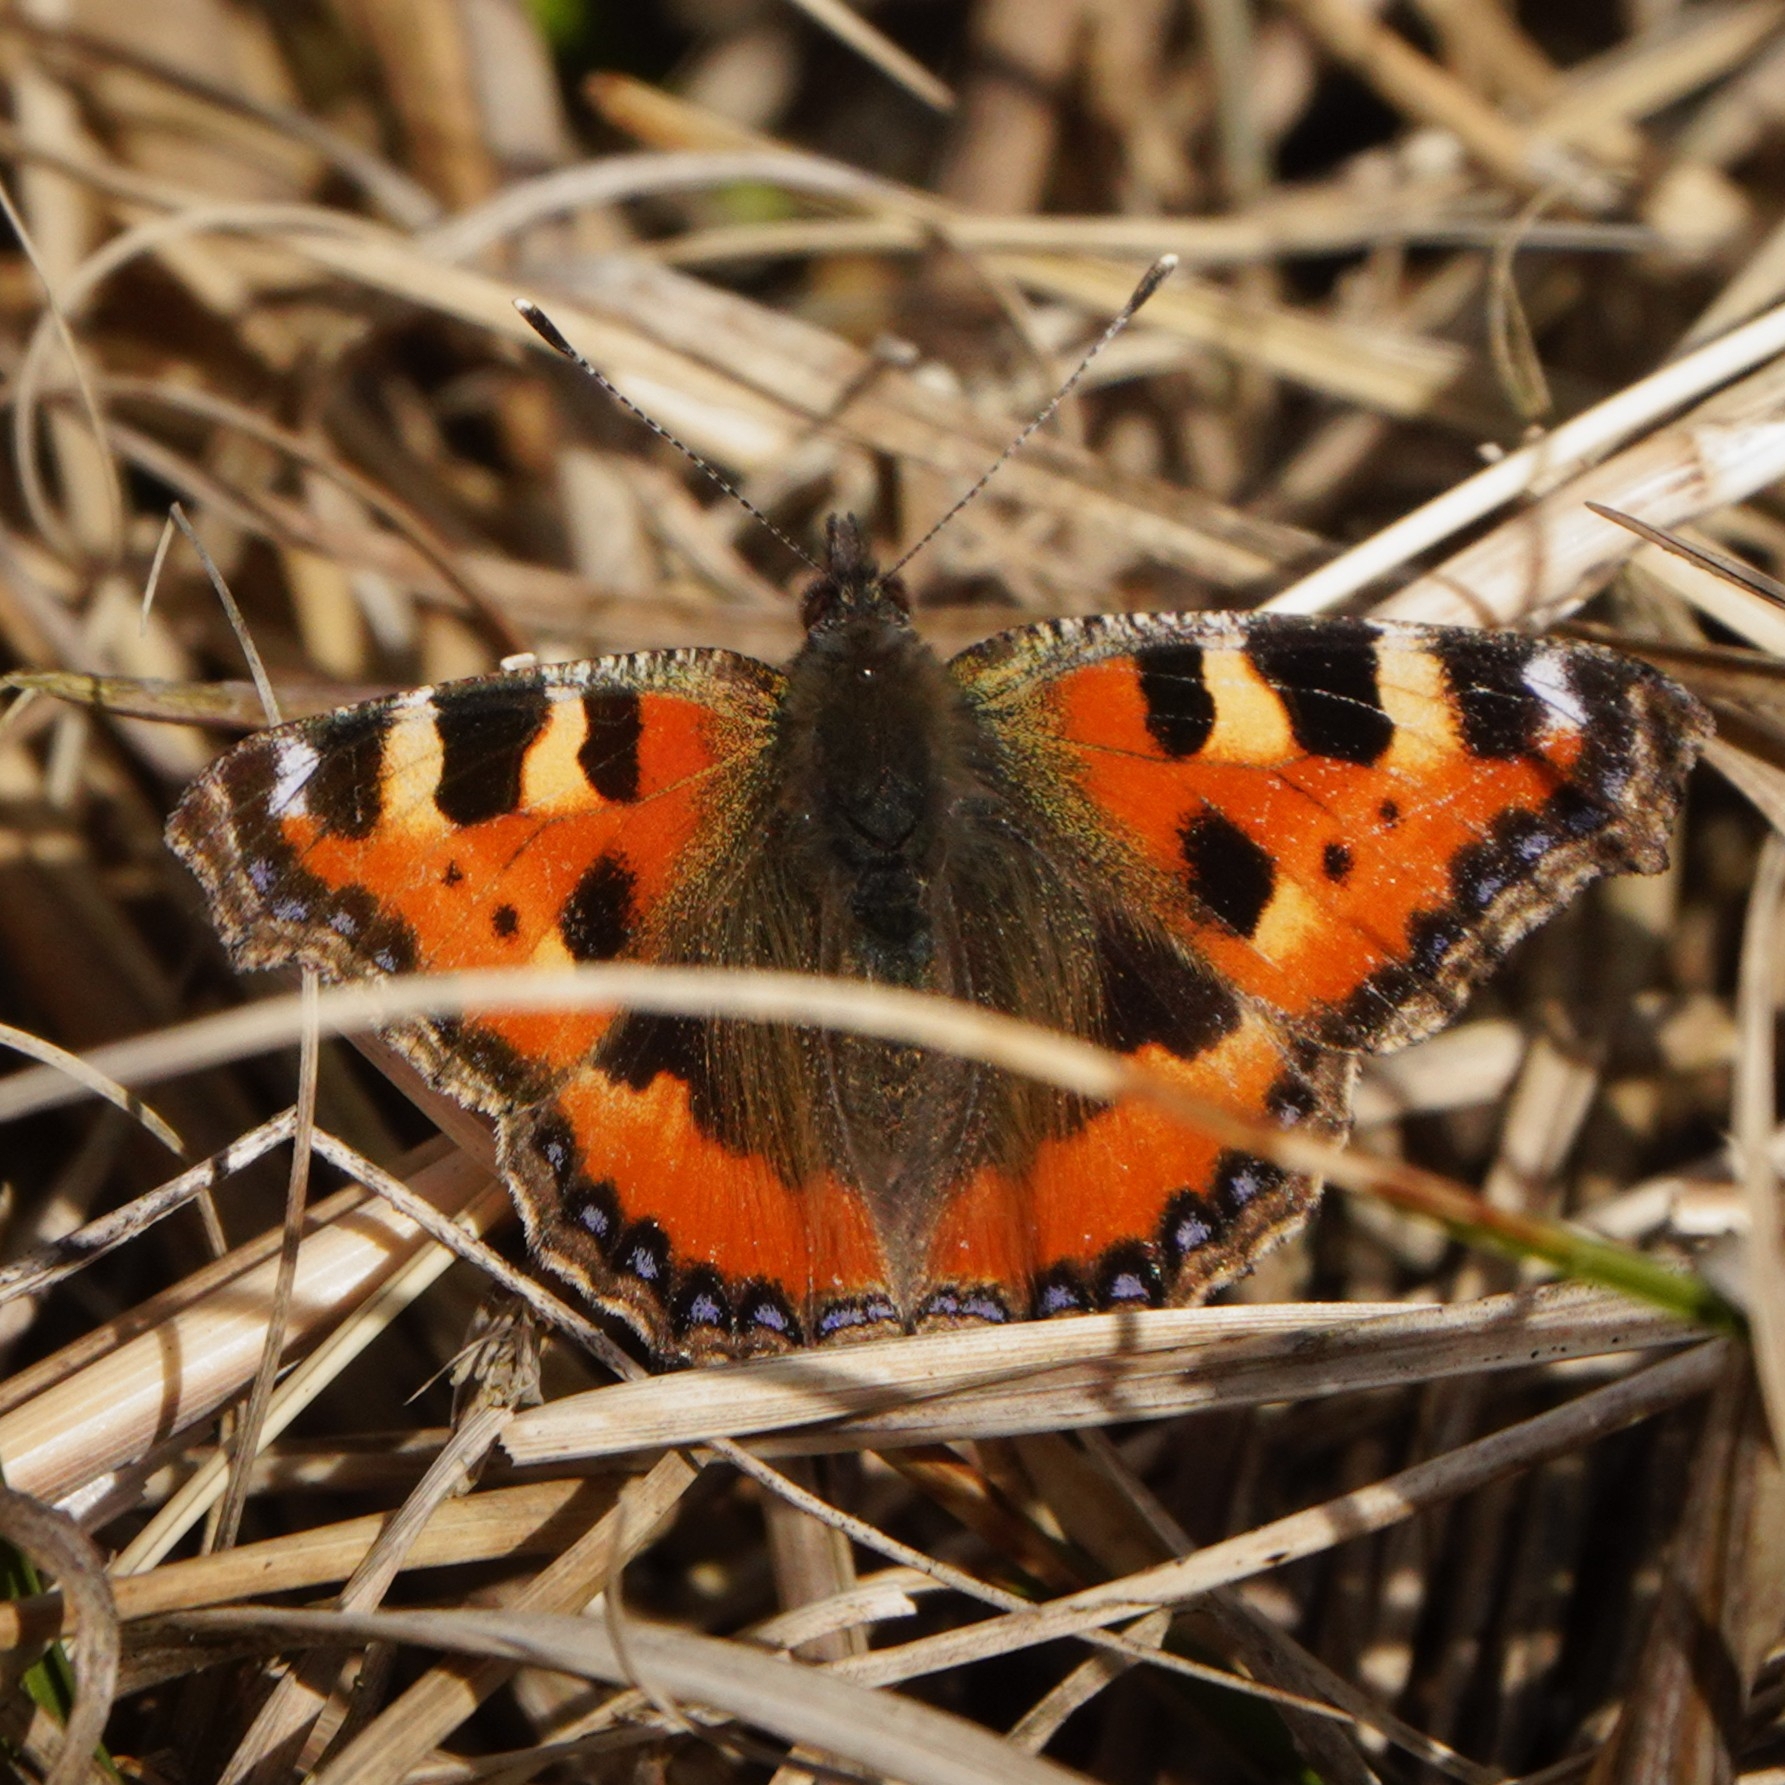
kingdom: Animalia
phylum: Arthropoda
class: Insecta
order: Lepidoptera
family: Nymphalidae
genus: Aglais
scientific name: Aglais urticae
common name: Small tortoiseshell
